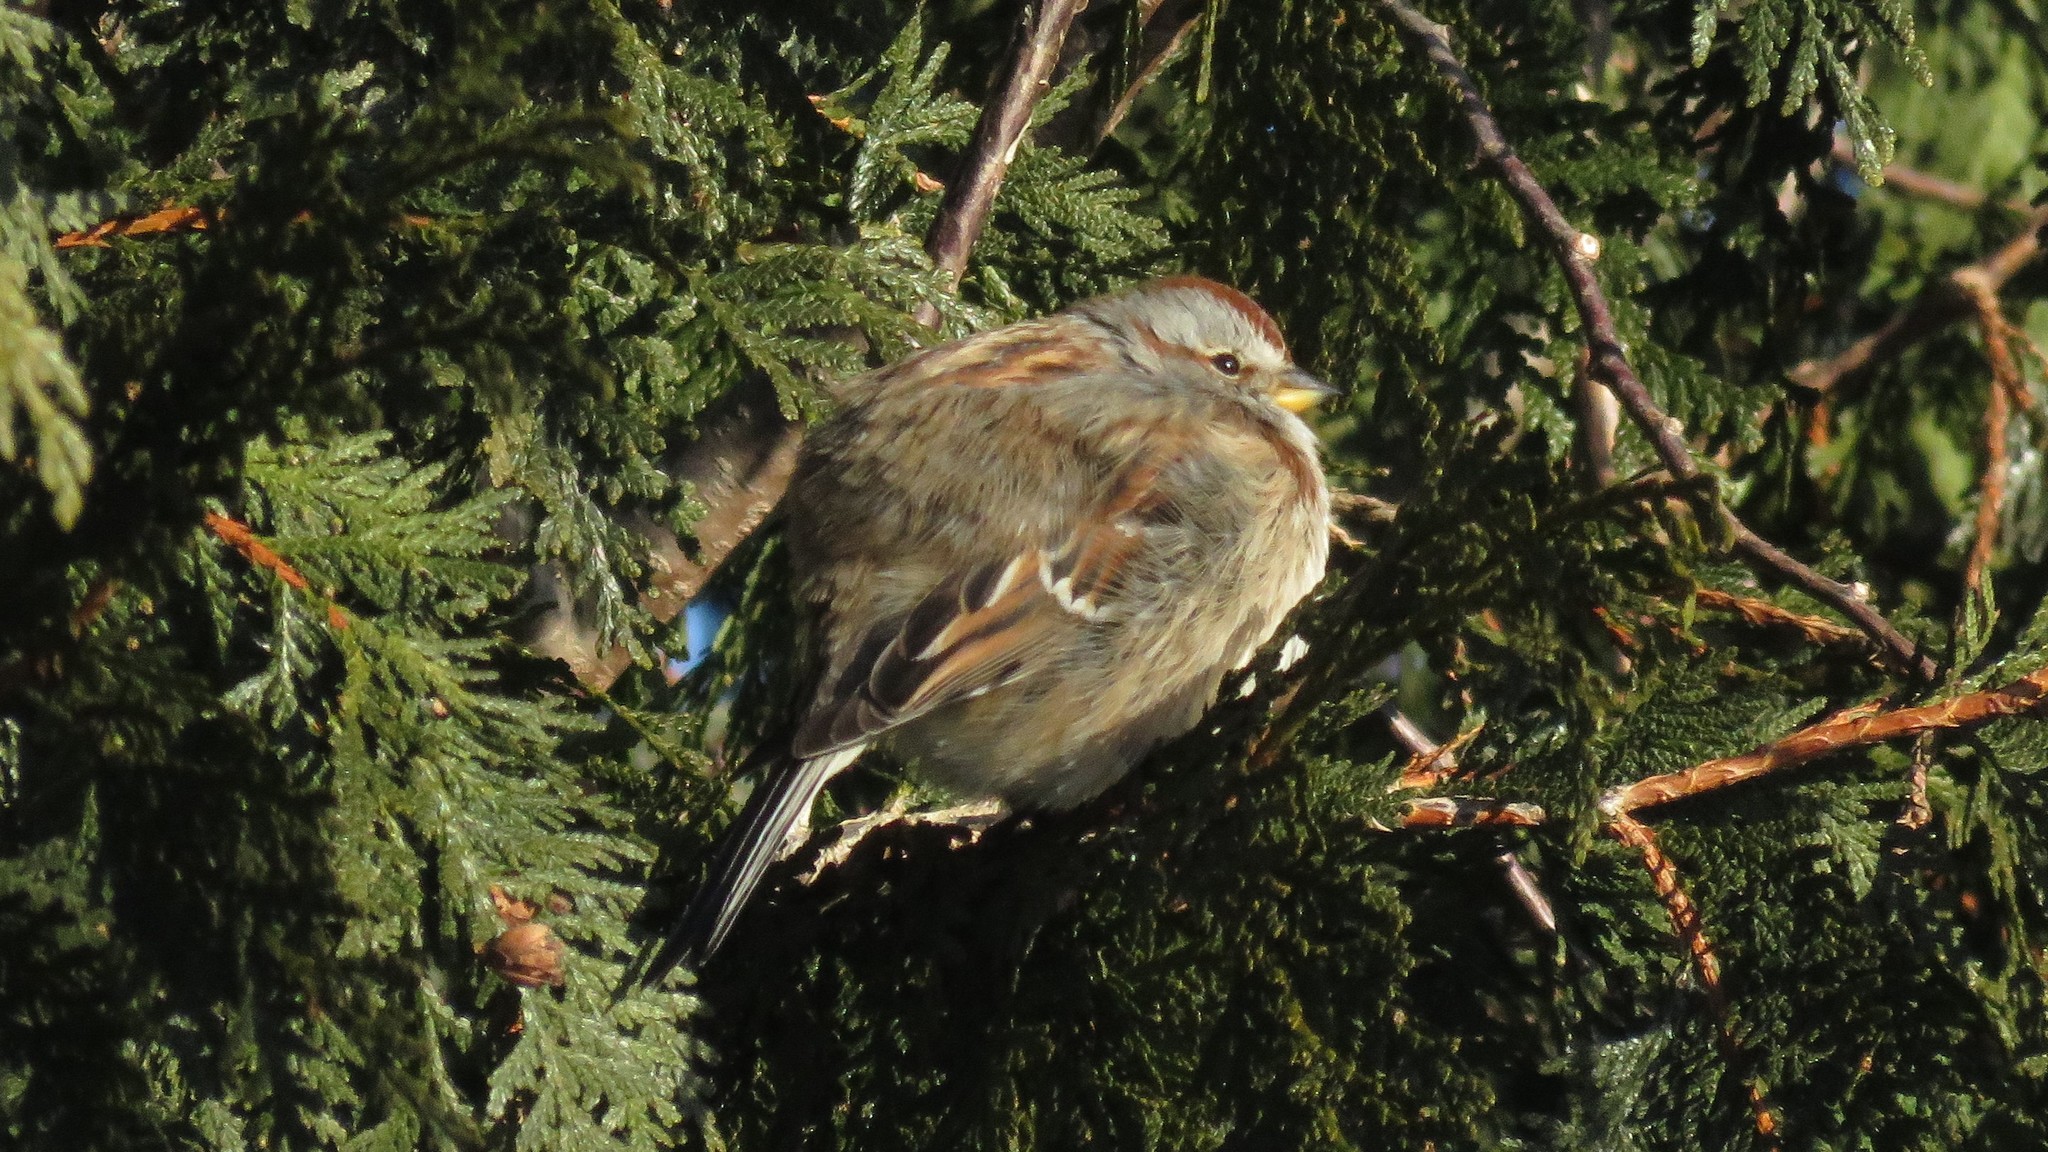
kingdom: Animalia
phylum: Chordata
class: Aves
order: Passeriformes
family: Passerellidae
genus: Spizelloides
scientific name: Spizelloides arborea
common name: American tree sparrow
